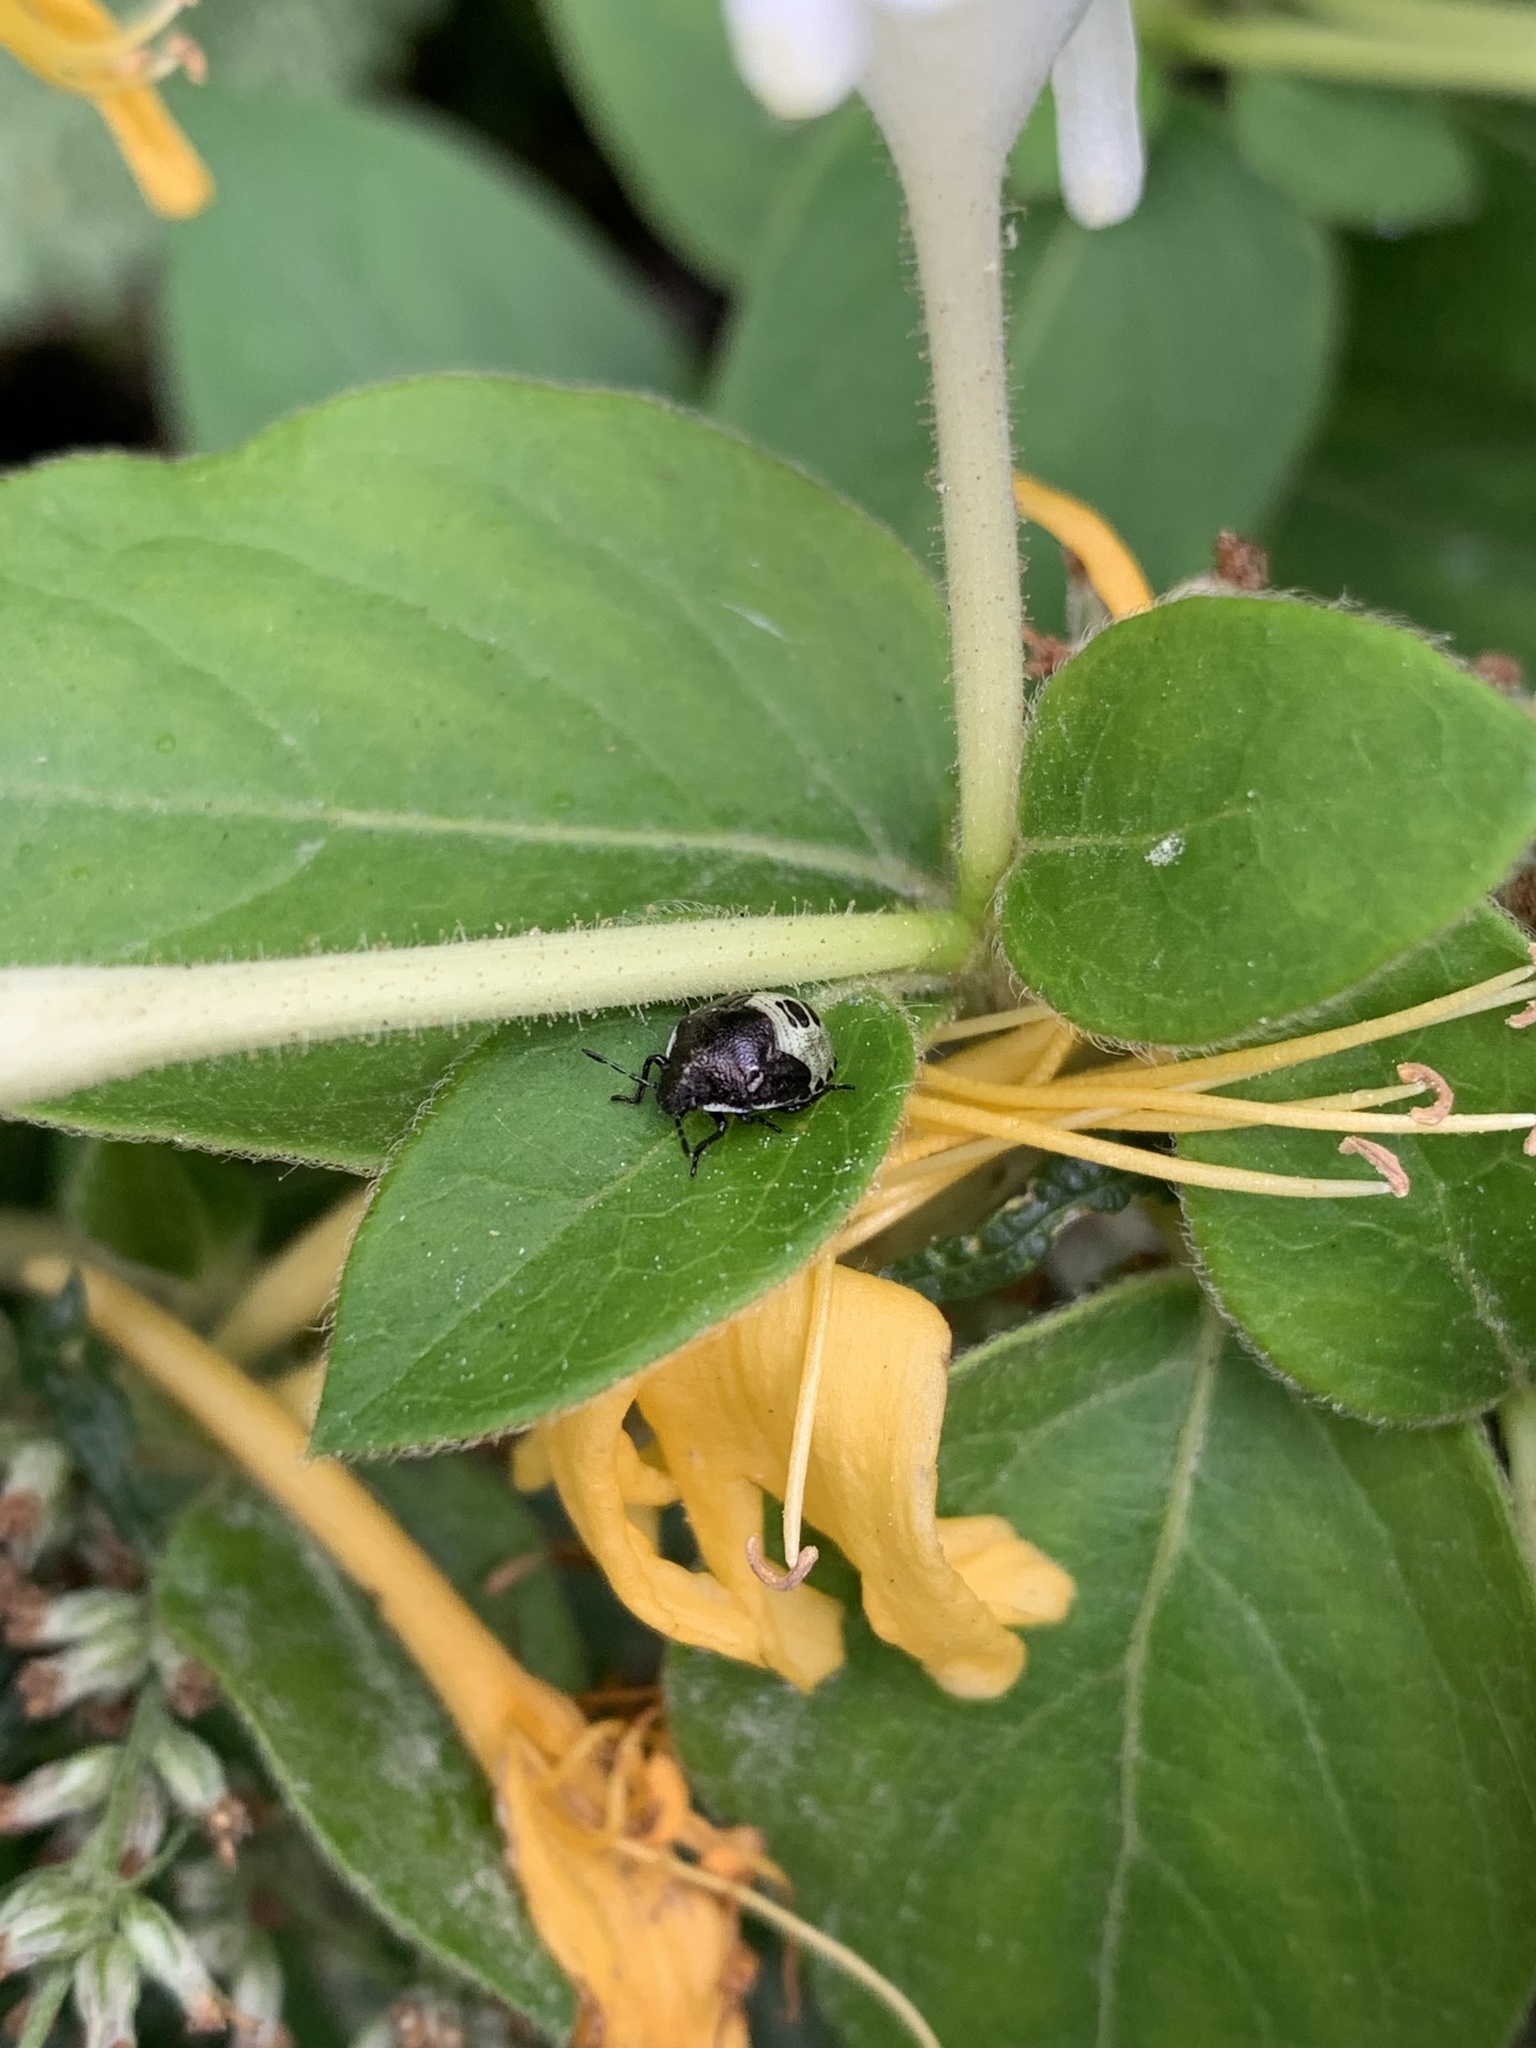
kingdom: Animalia
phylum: Arthropoda
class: Insecta
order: Hemiptera
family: Pentatomidae
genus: Eysarcoris
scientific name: Eysarcoris venustissimus
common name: Woundwort shieldbug
